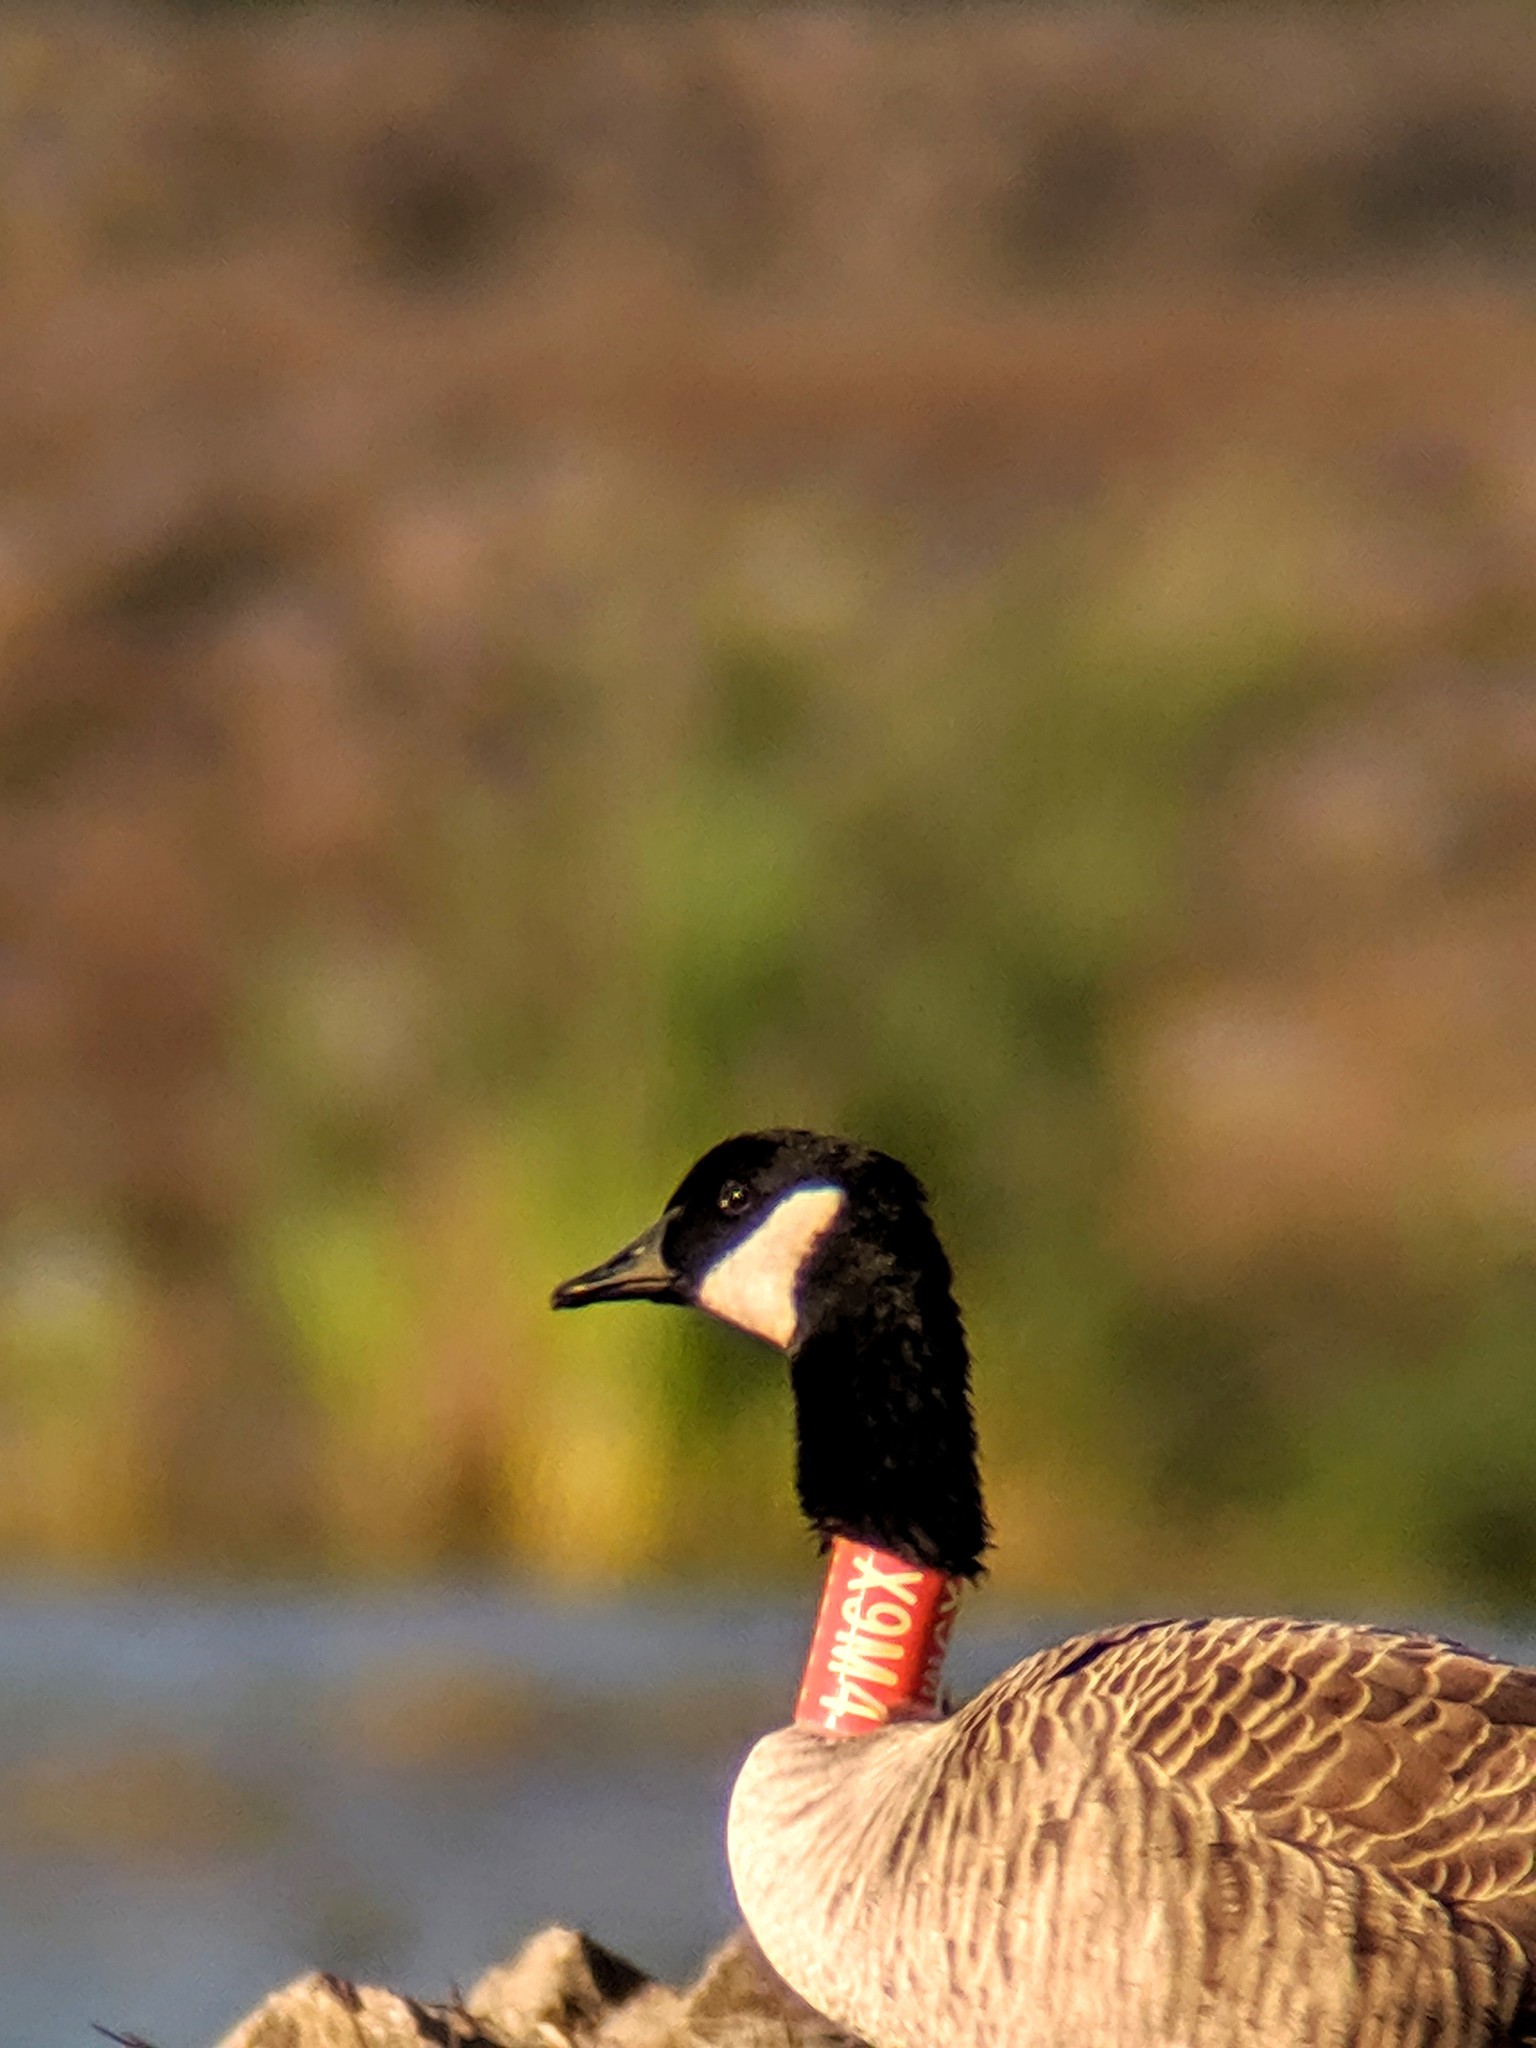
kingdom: Animalia
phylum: Chordata
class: Aves
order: Anseriformes
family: Anatidae
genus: Branta
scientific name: Branta canadensis
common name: Canada goose
